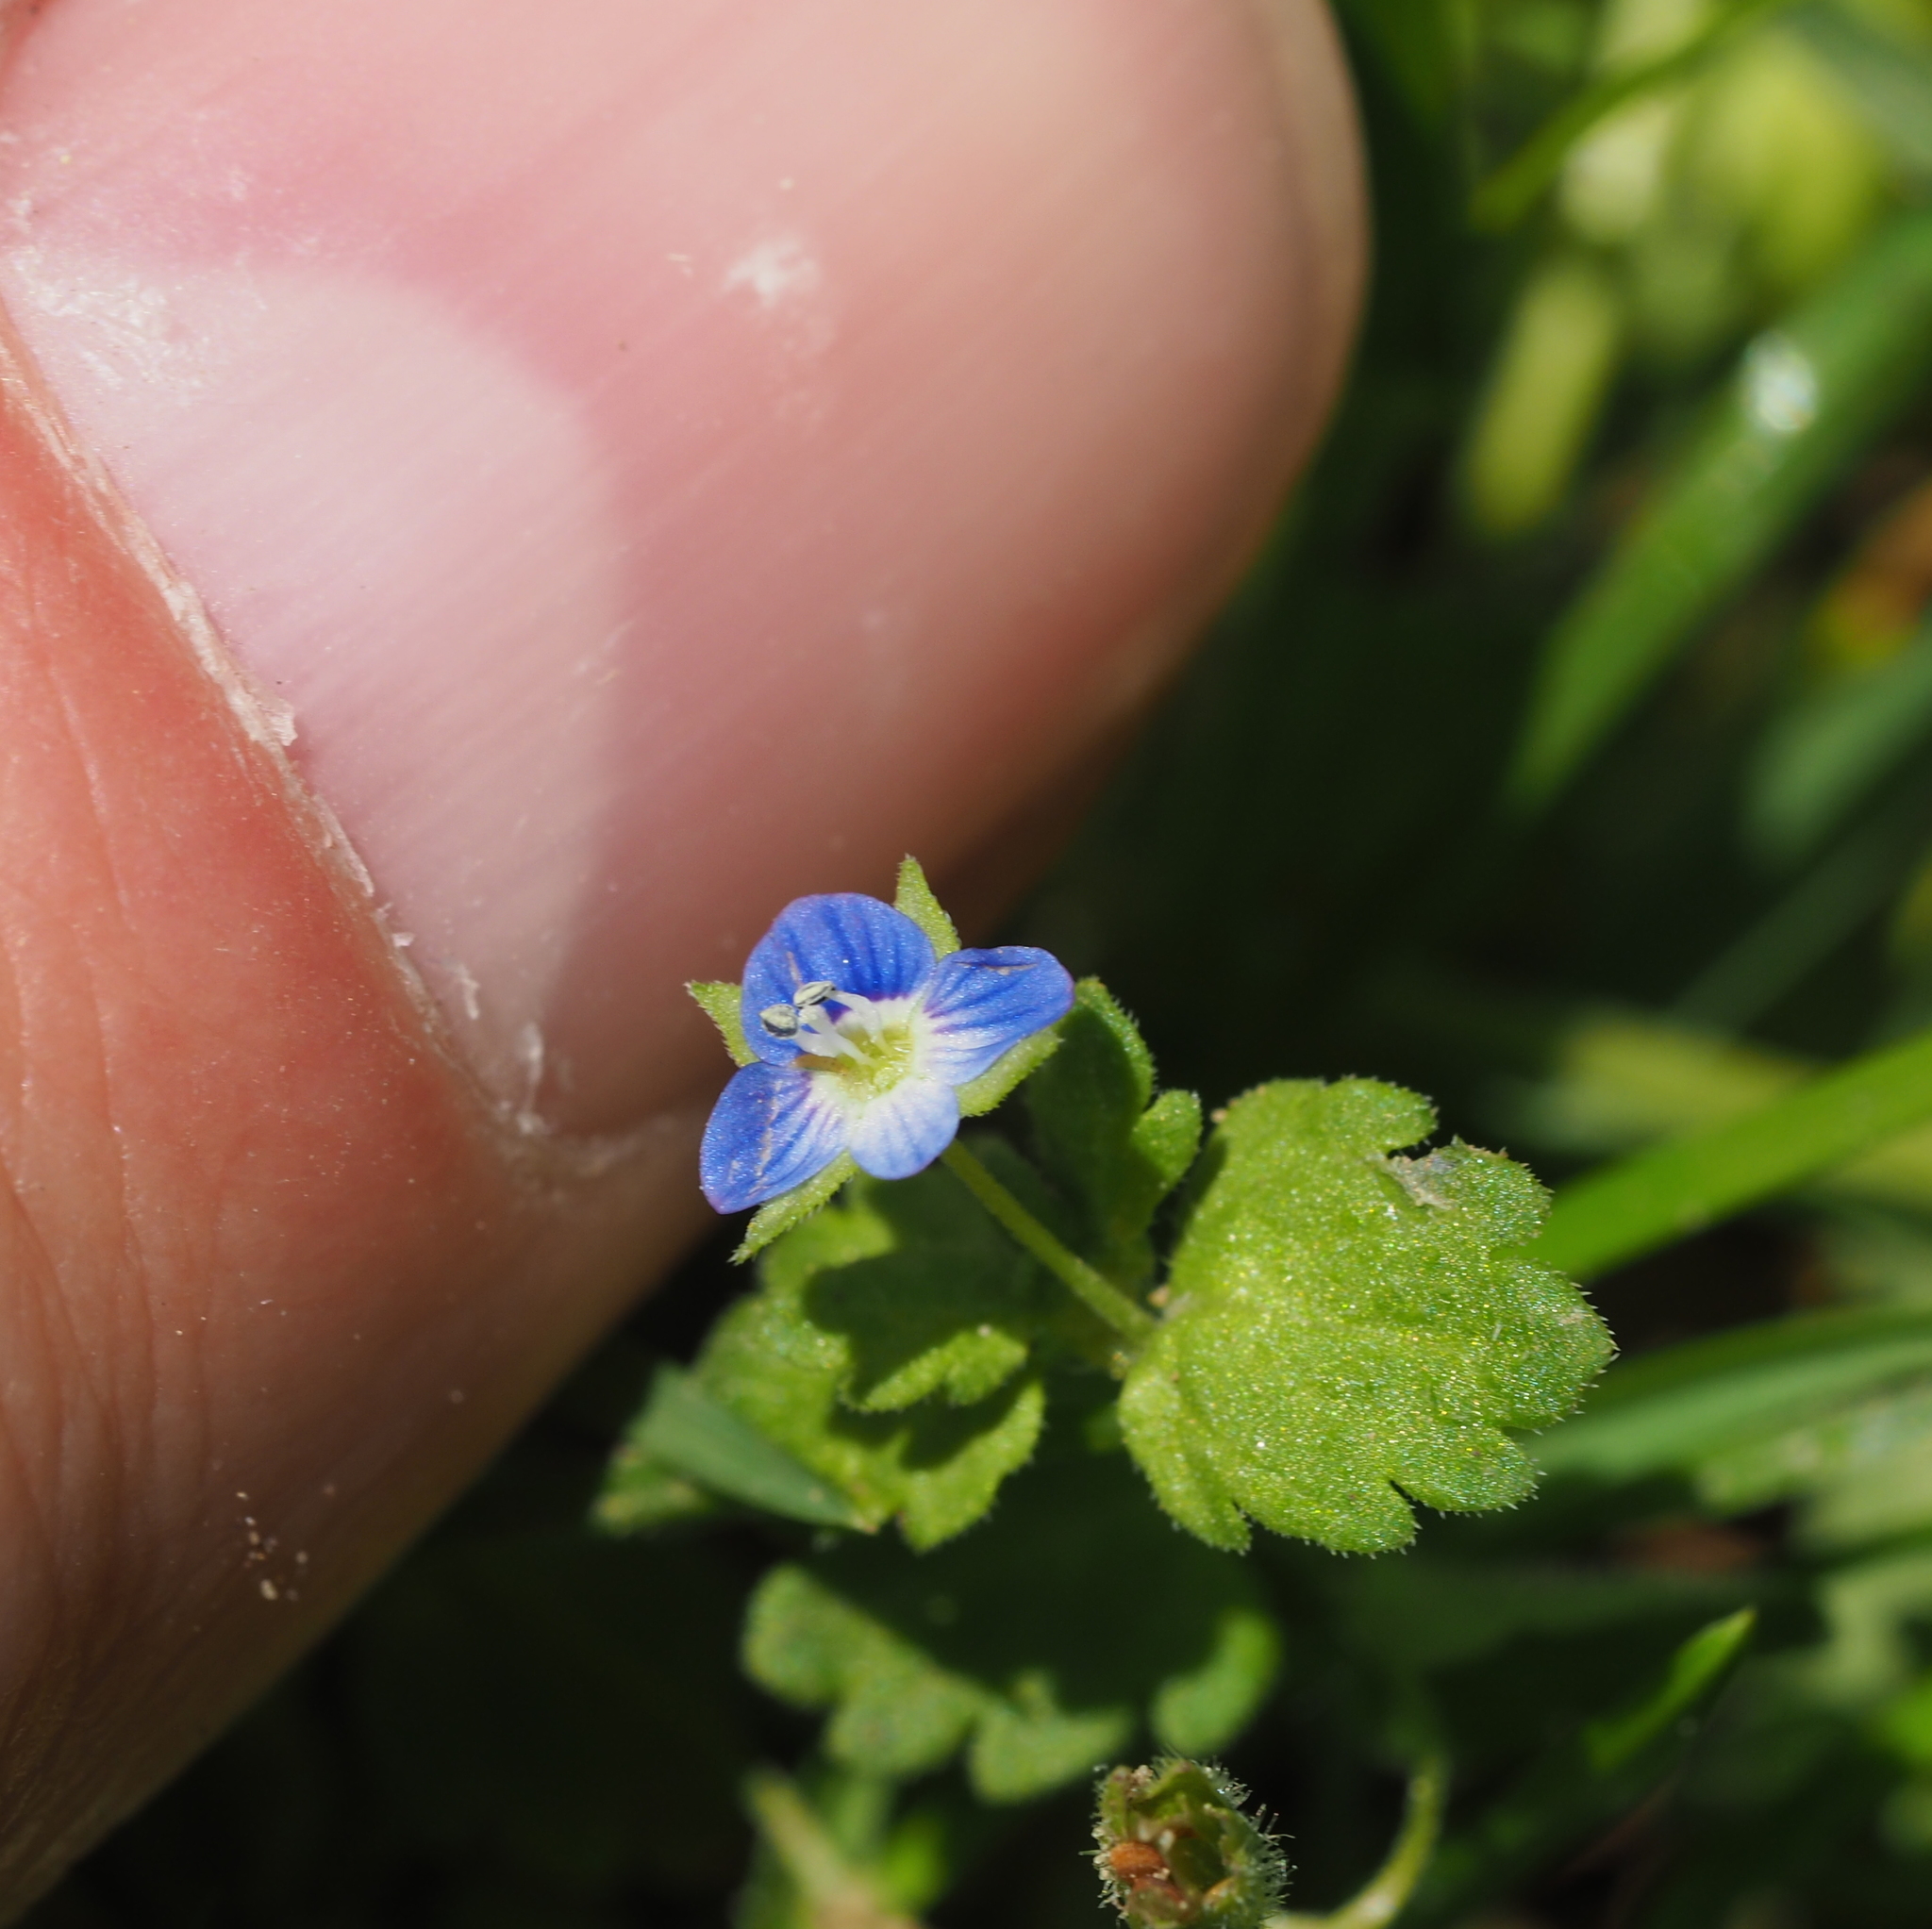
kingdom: Plantae
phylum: Tracheophyta
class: Magnoliopsida
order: Lamiales
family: Plantaginaceae
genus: Veronica
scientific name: Veronica persica
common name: Common field-speedwell
